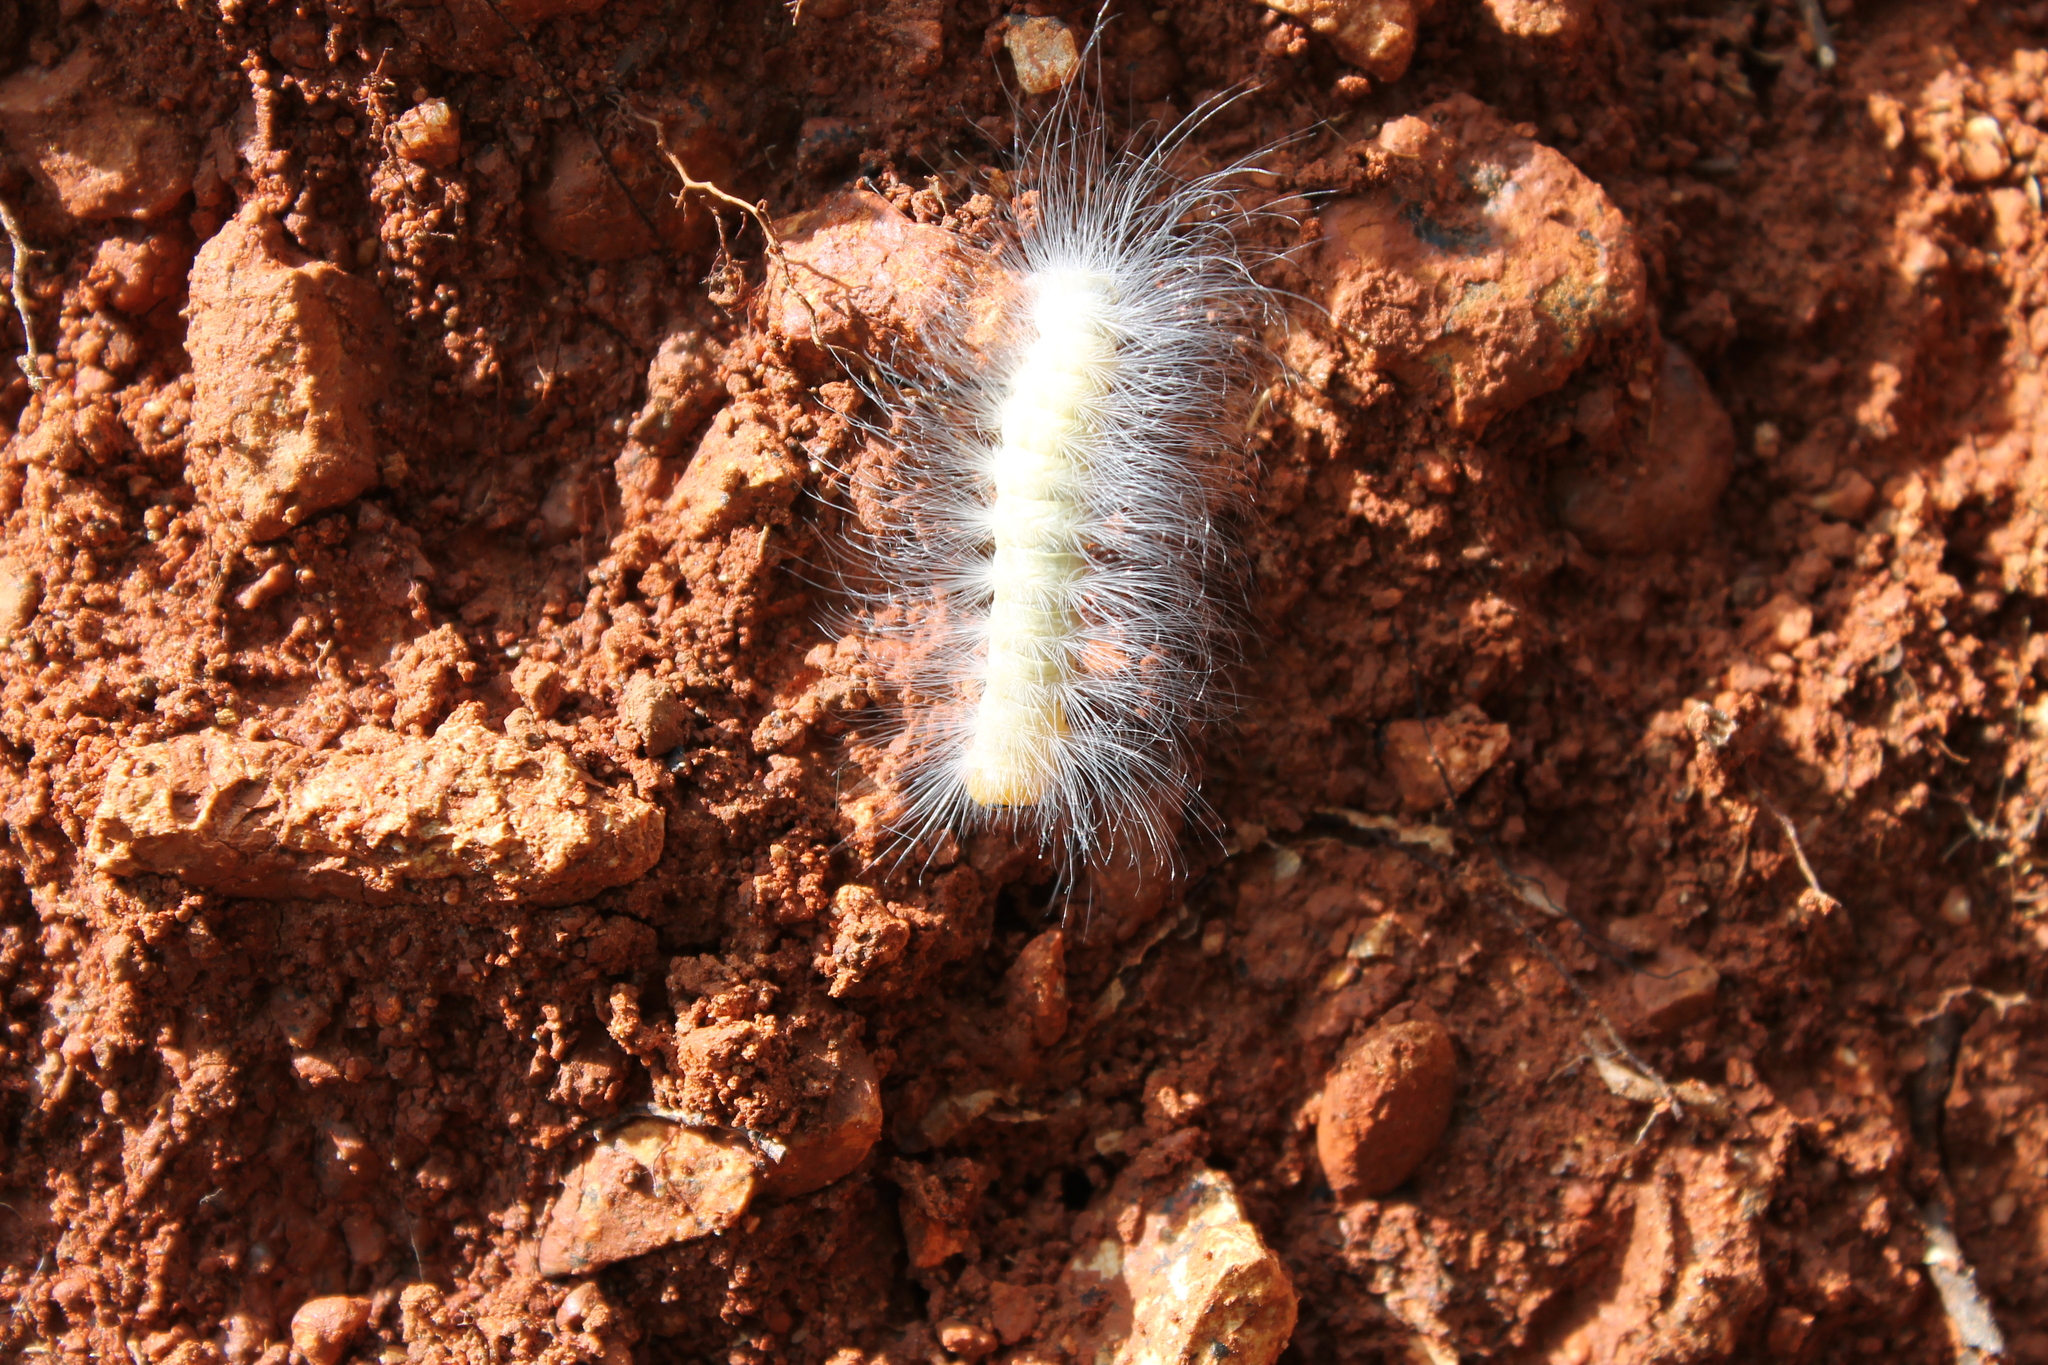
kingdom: Animalia
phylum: Arthropoda
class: Insecta
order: Lepidoptera
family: Noctuidae
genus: Charadra
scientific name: Charadra deridens
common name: Marbled tuffet
